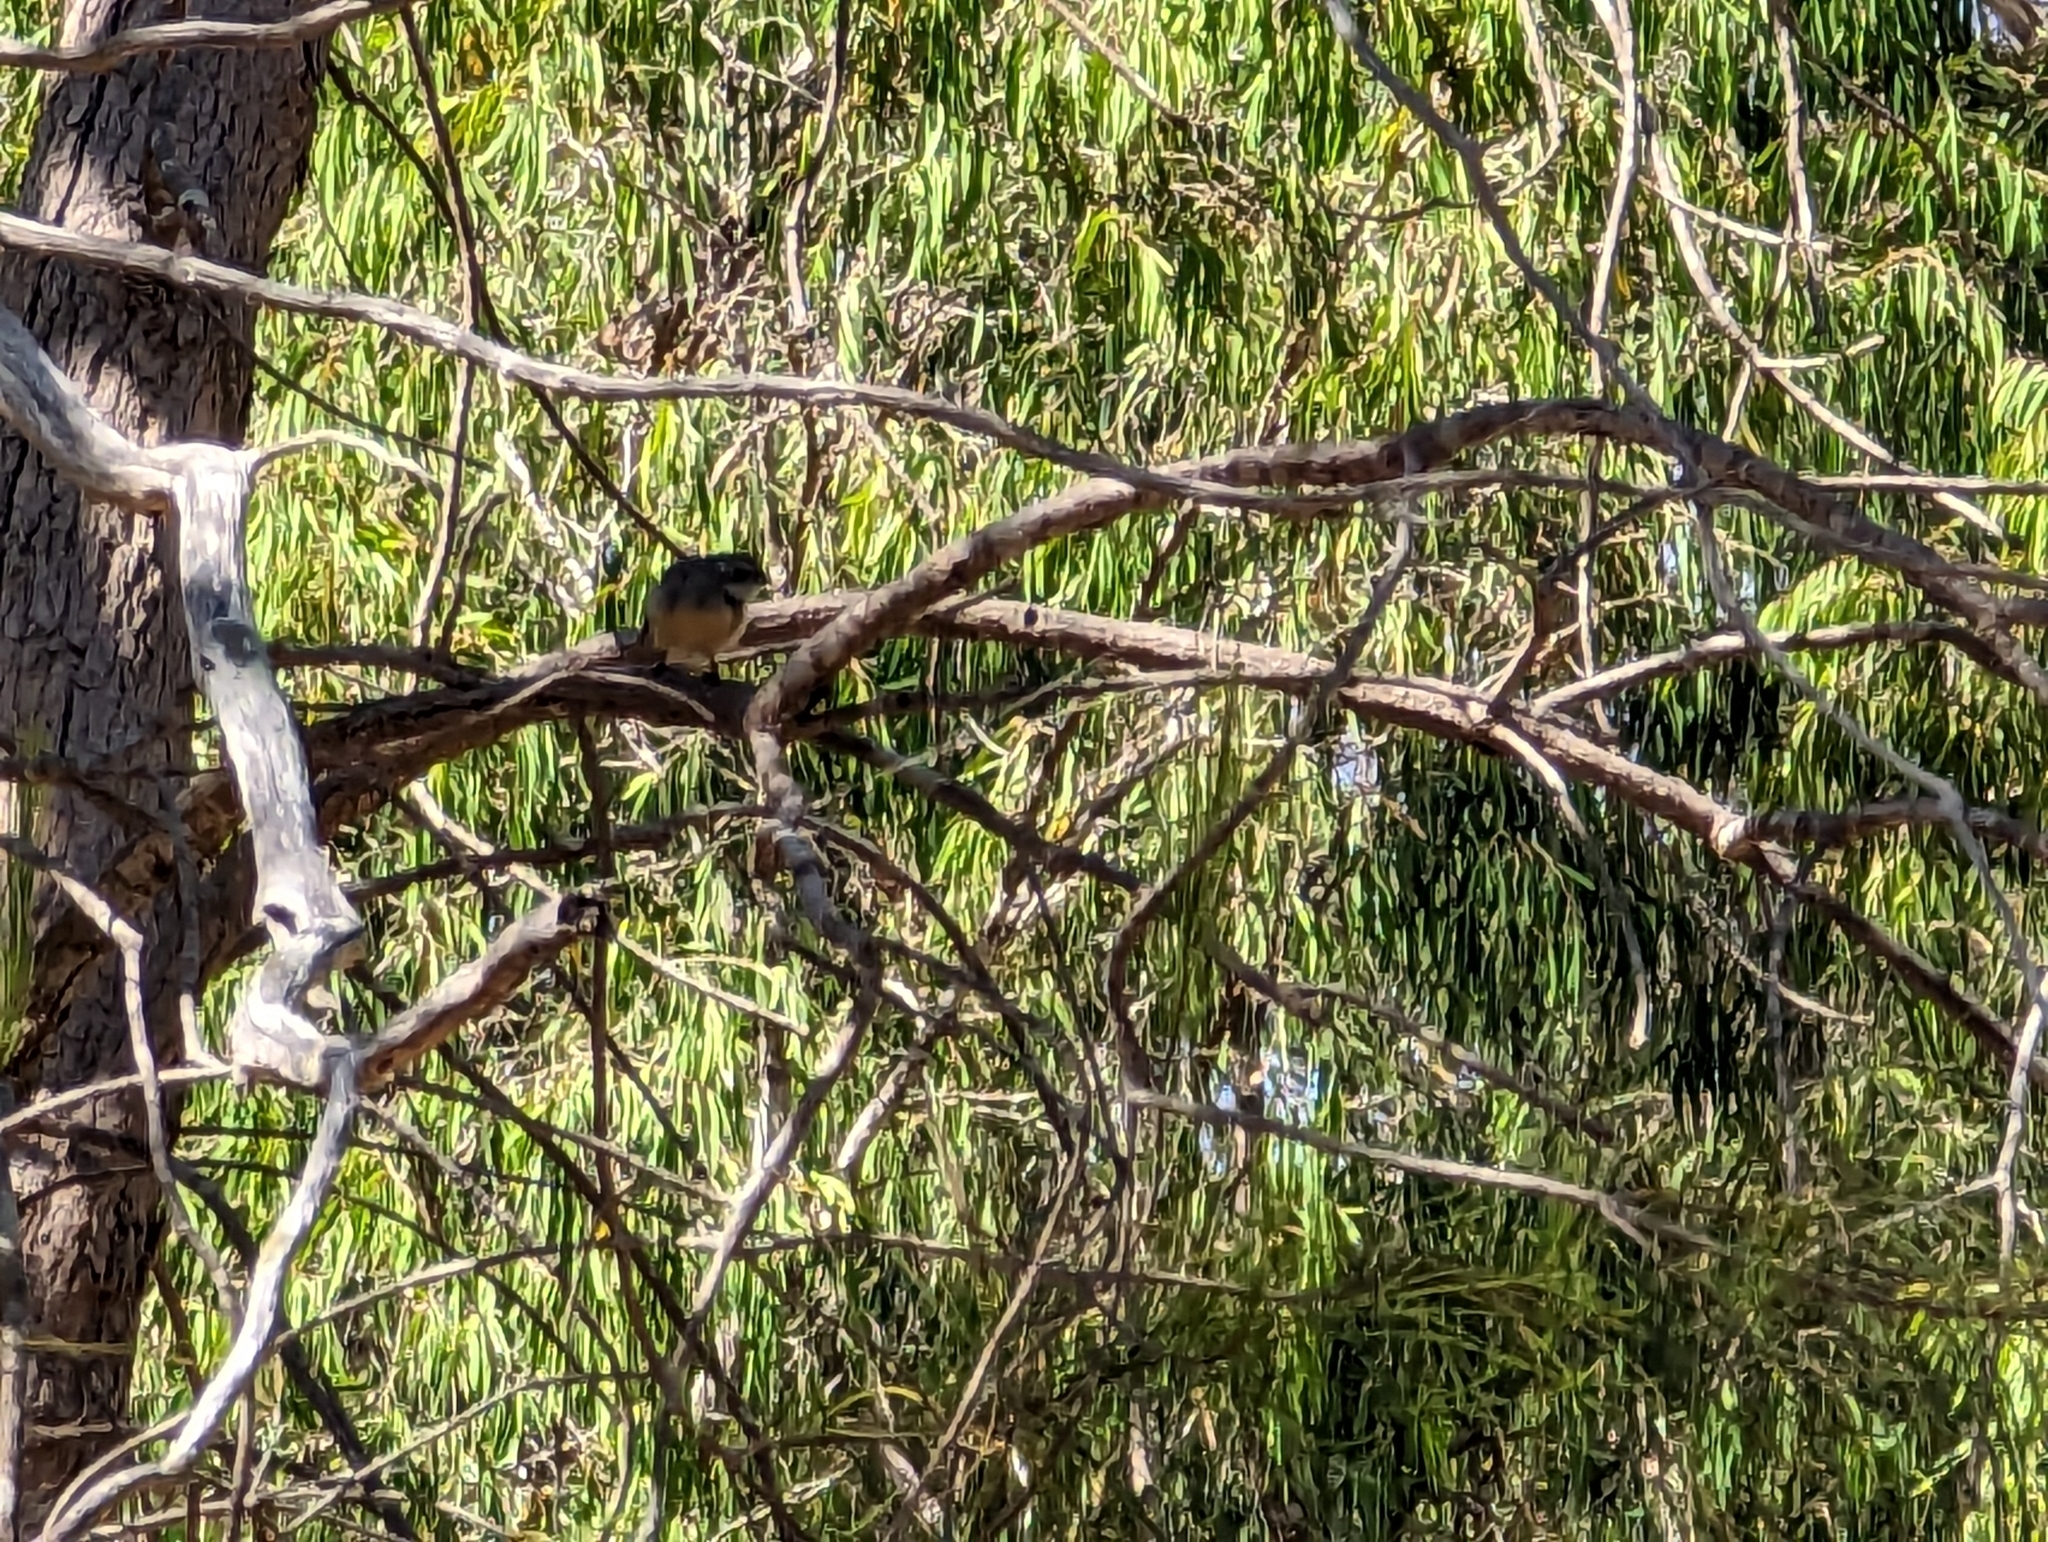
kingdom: Animalia
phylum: Chordata
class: Aves
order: Passeriformes
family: Rhipiduridae
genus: Rhipidura
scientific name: Rhipidura albiscapa
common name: Grey fantail
